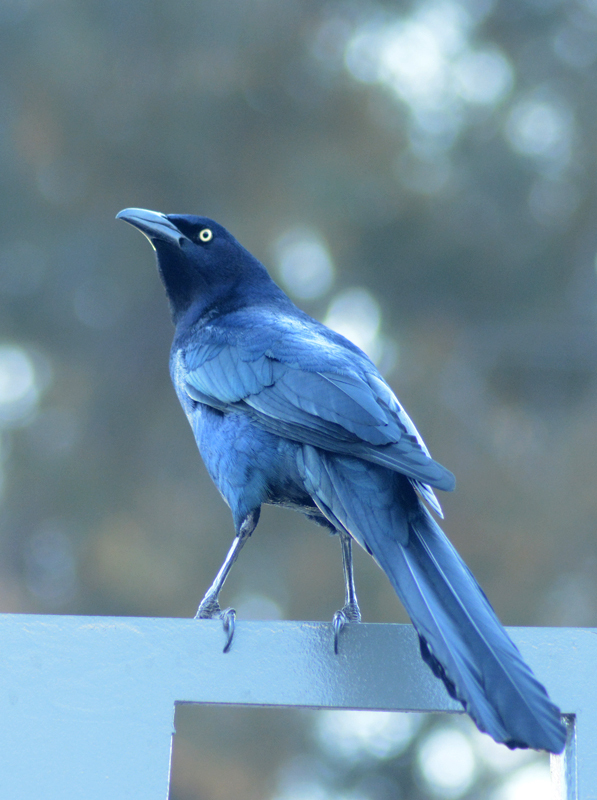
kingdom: Animalia
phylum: Chordata
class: Aves
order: Passeriformes
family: Icteridae
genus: Quiscalus
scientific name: Quiscalus mexicanus
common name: Great-tailed grackle
